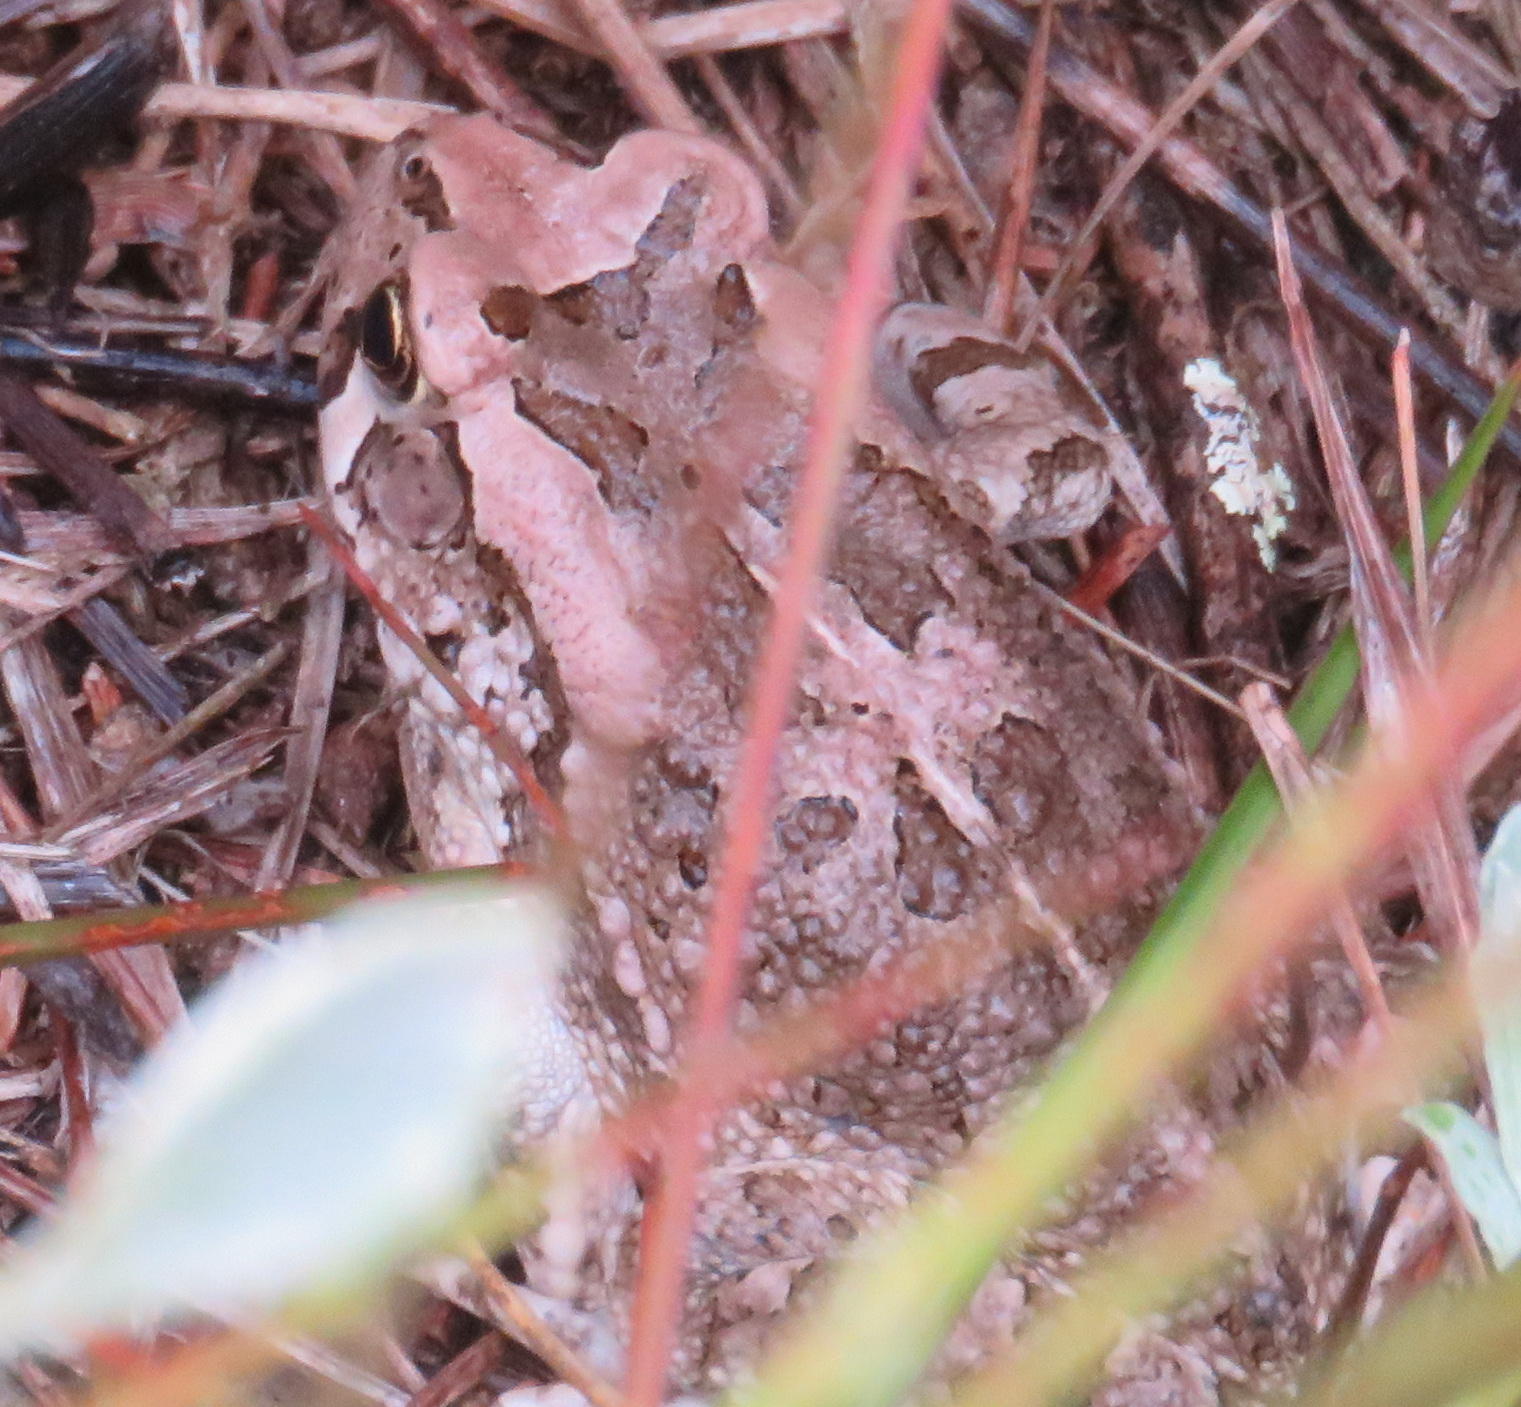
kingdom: Animalia
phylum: Chordata
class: Amphibia
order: Anura
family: Bufonidae
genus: Sclerophrys
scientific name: Sclerophrys capensis
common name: Ranger’s toad
